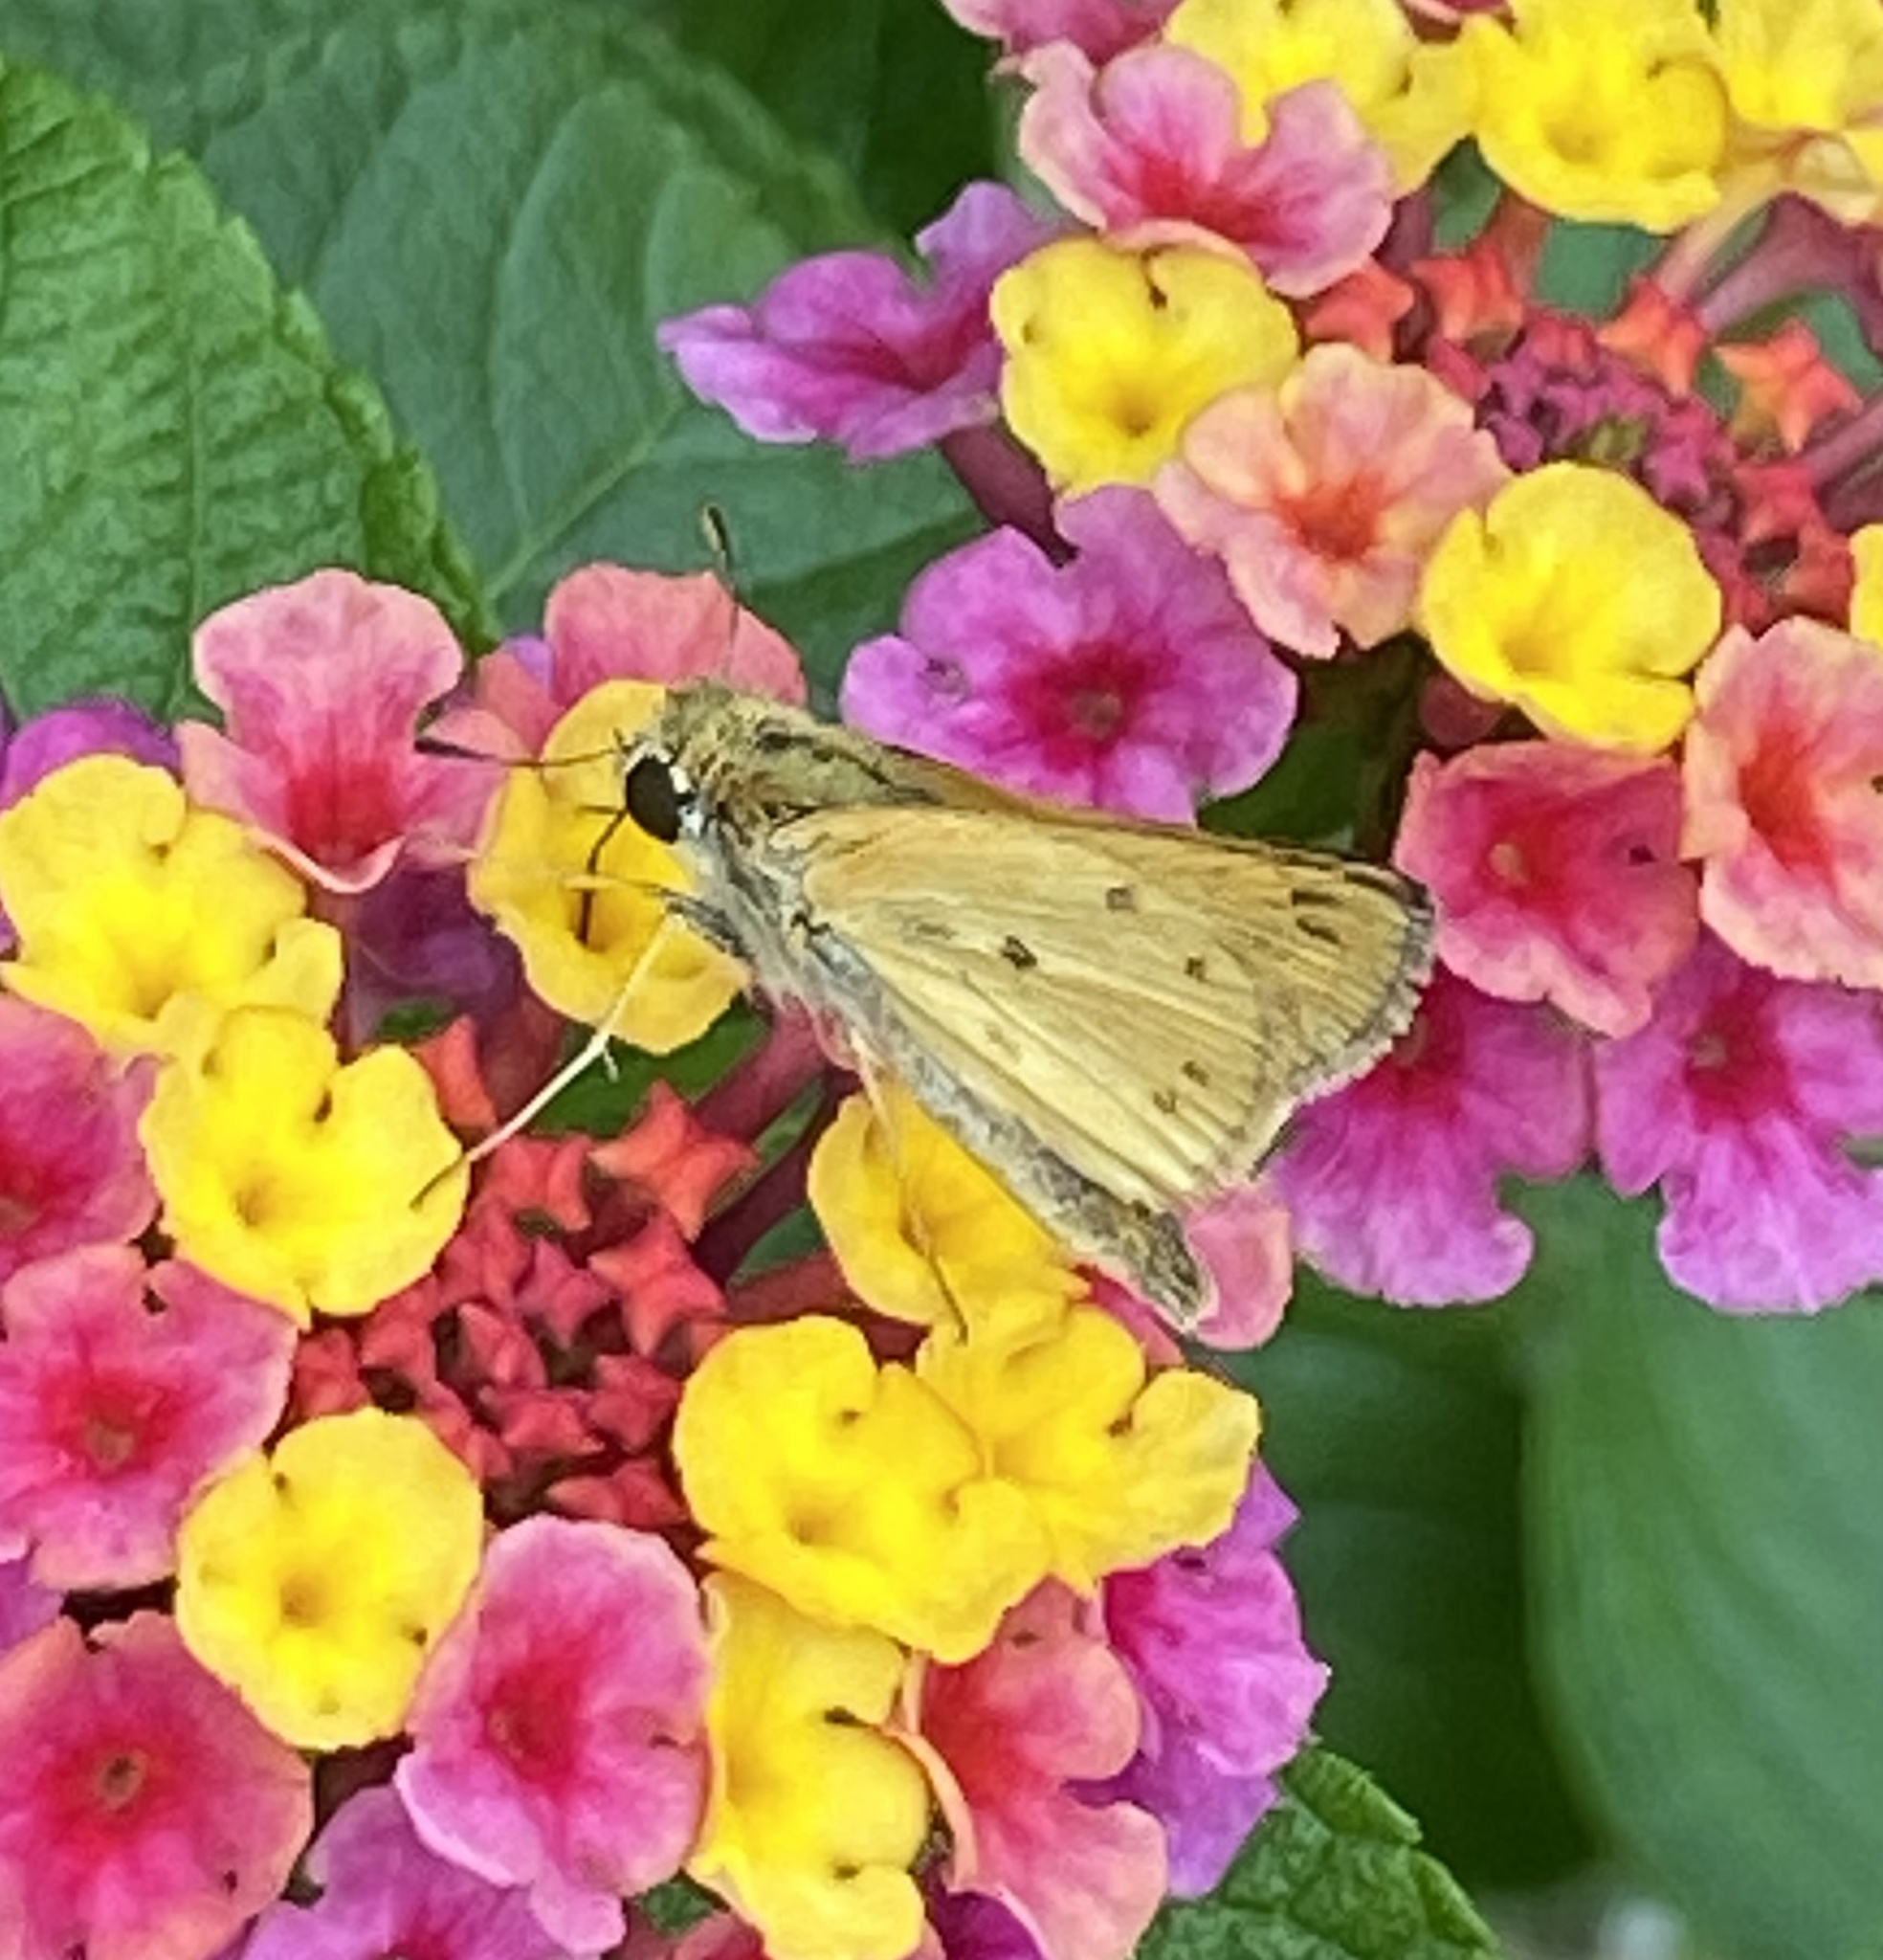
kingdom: Animalia
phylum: Arthropoda
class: Insecta
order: Lepidoptera
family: Hesperiidae
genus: Hylephila
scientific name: Hylephila phyleus
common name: Fiery skipper
